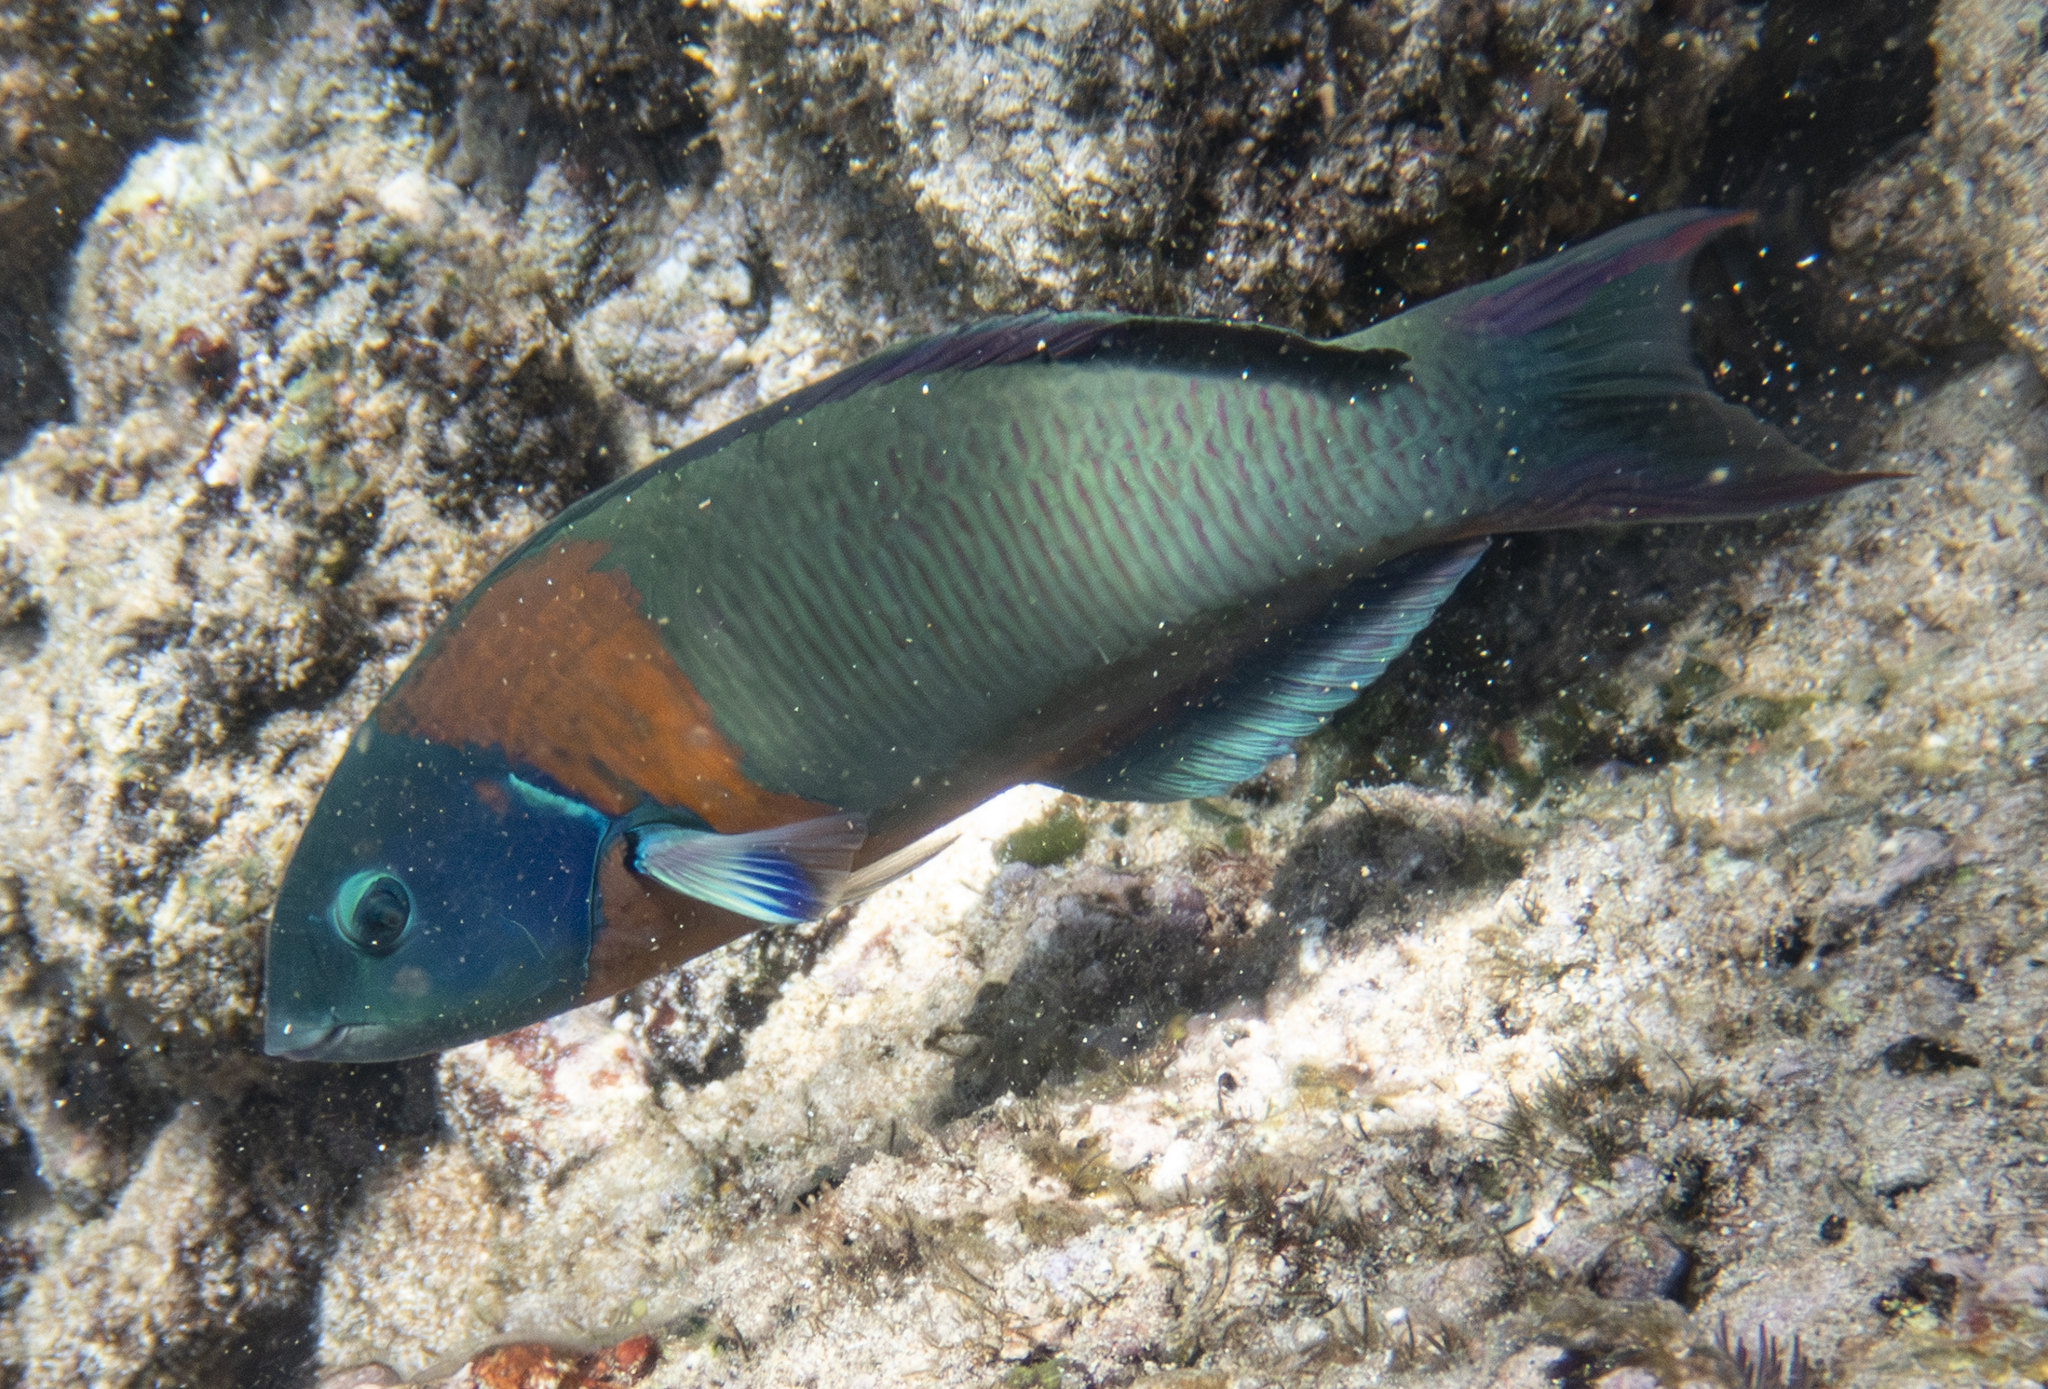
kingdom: Animalia
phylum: Chordata
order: Perciformes
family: Labridae
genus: Thalassoma
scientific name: Thalassoma duperrey
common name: Saddle wrasse
